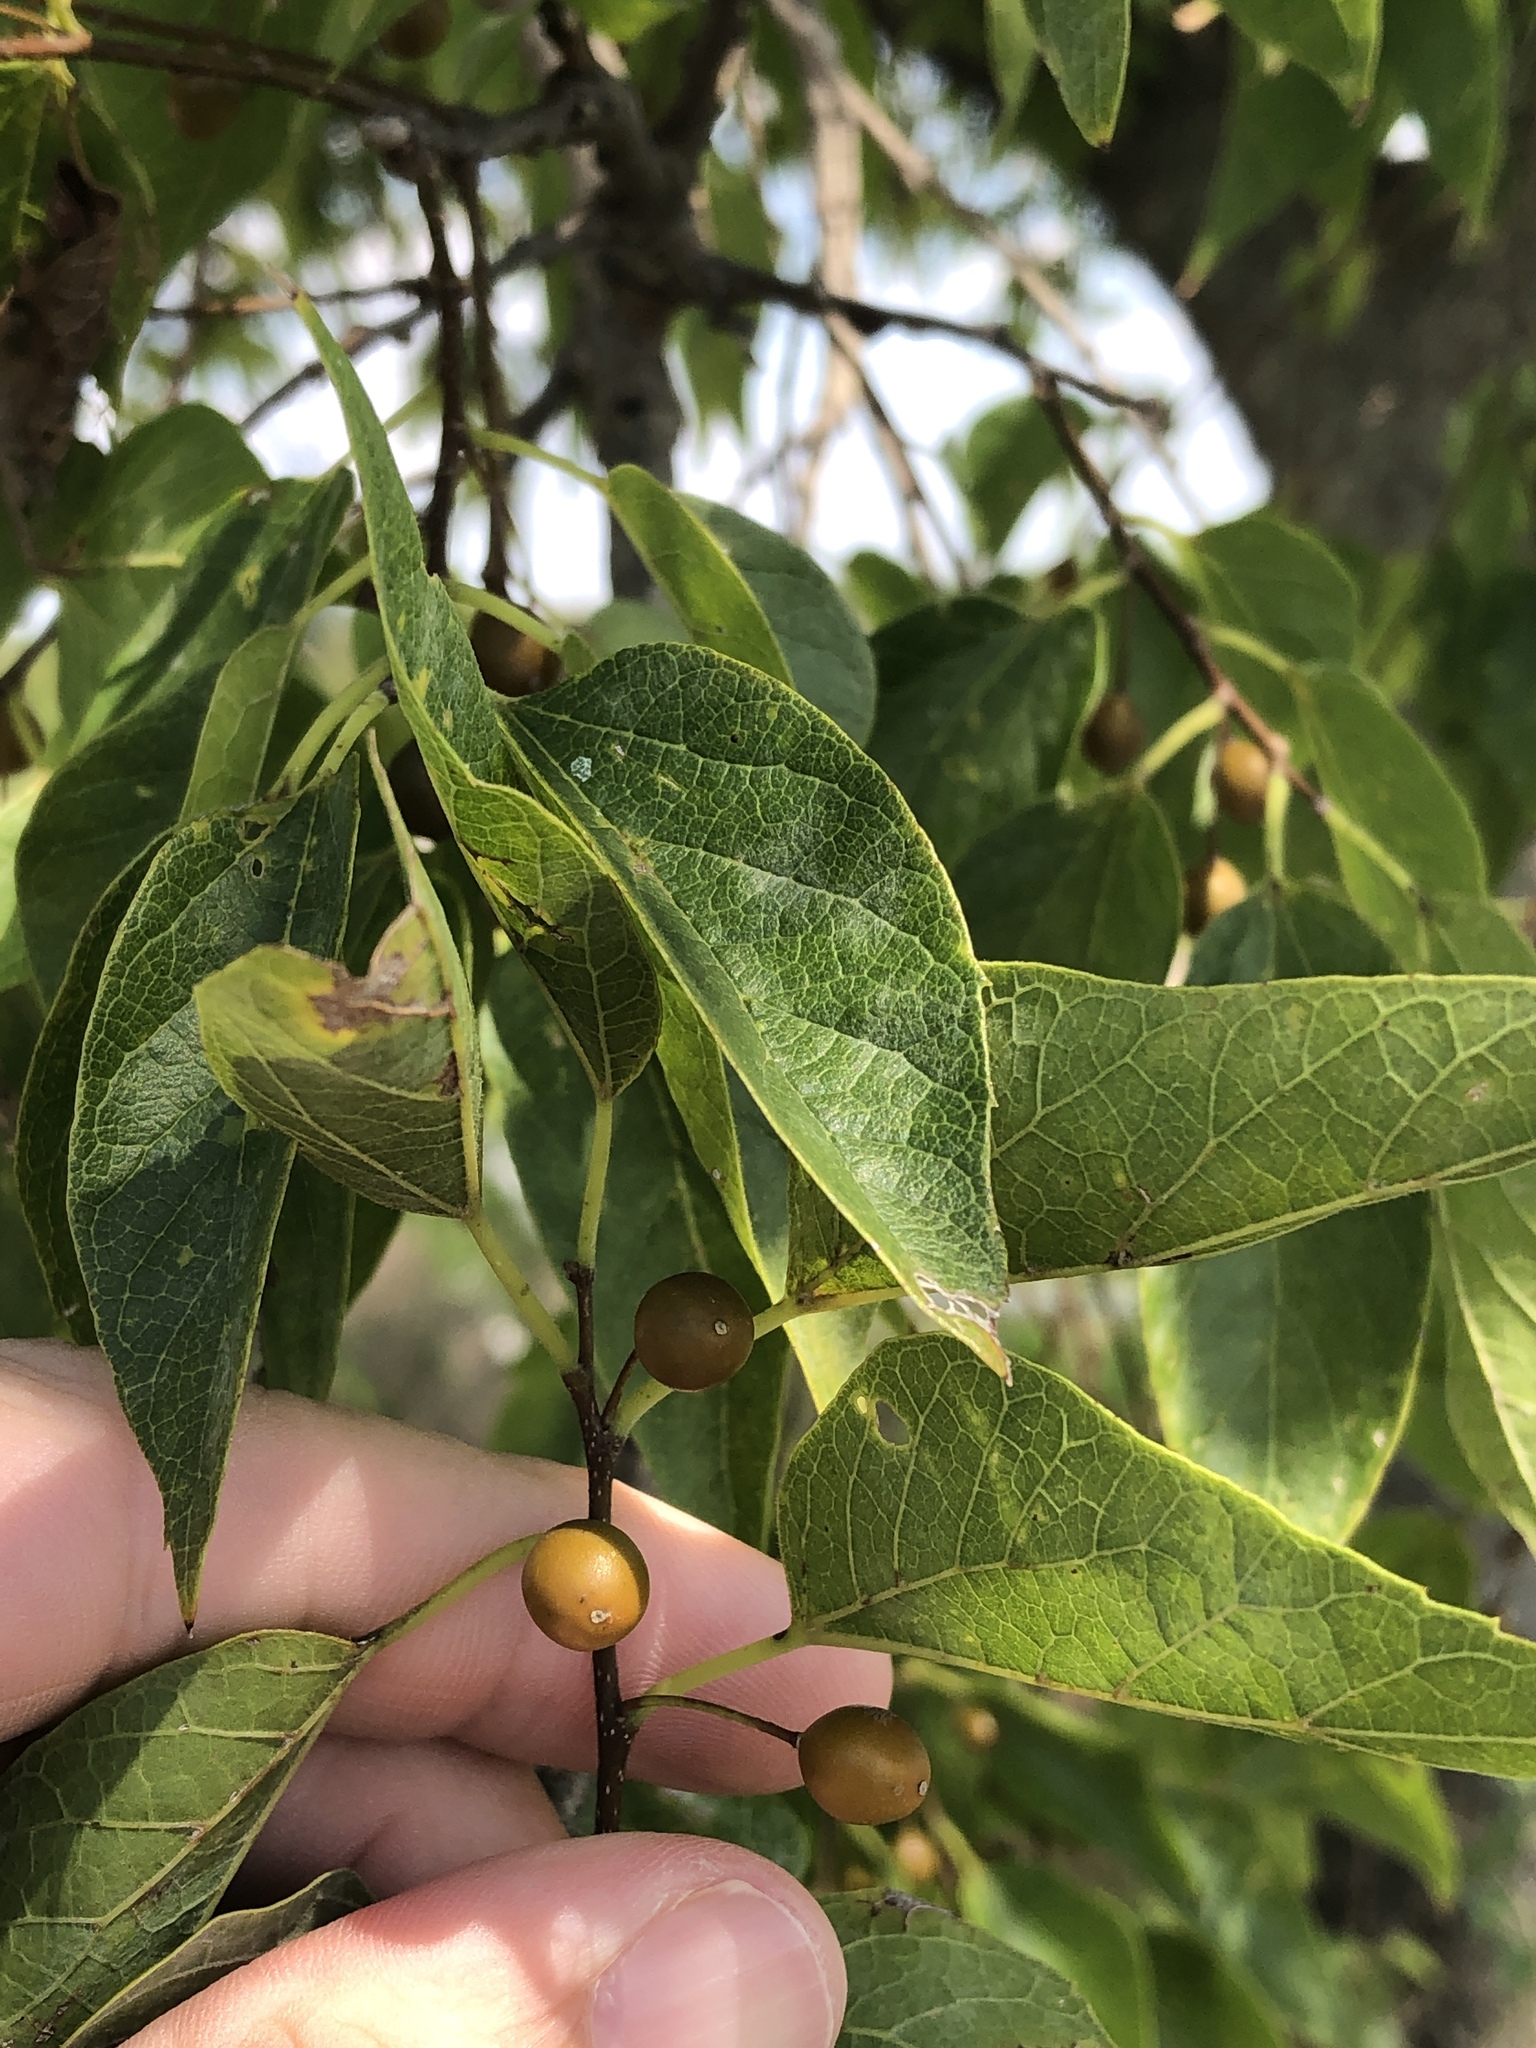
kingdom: Plantae
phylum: Tracheophyta
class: Magnoliopsida
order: Rosales
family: Cannabaceae
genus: Celtis
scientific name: Celtis laevigata
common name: Sugarberry
